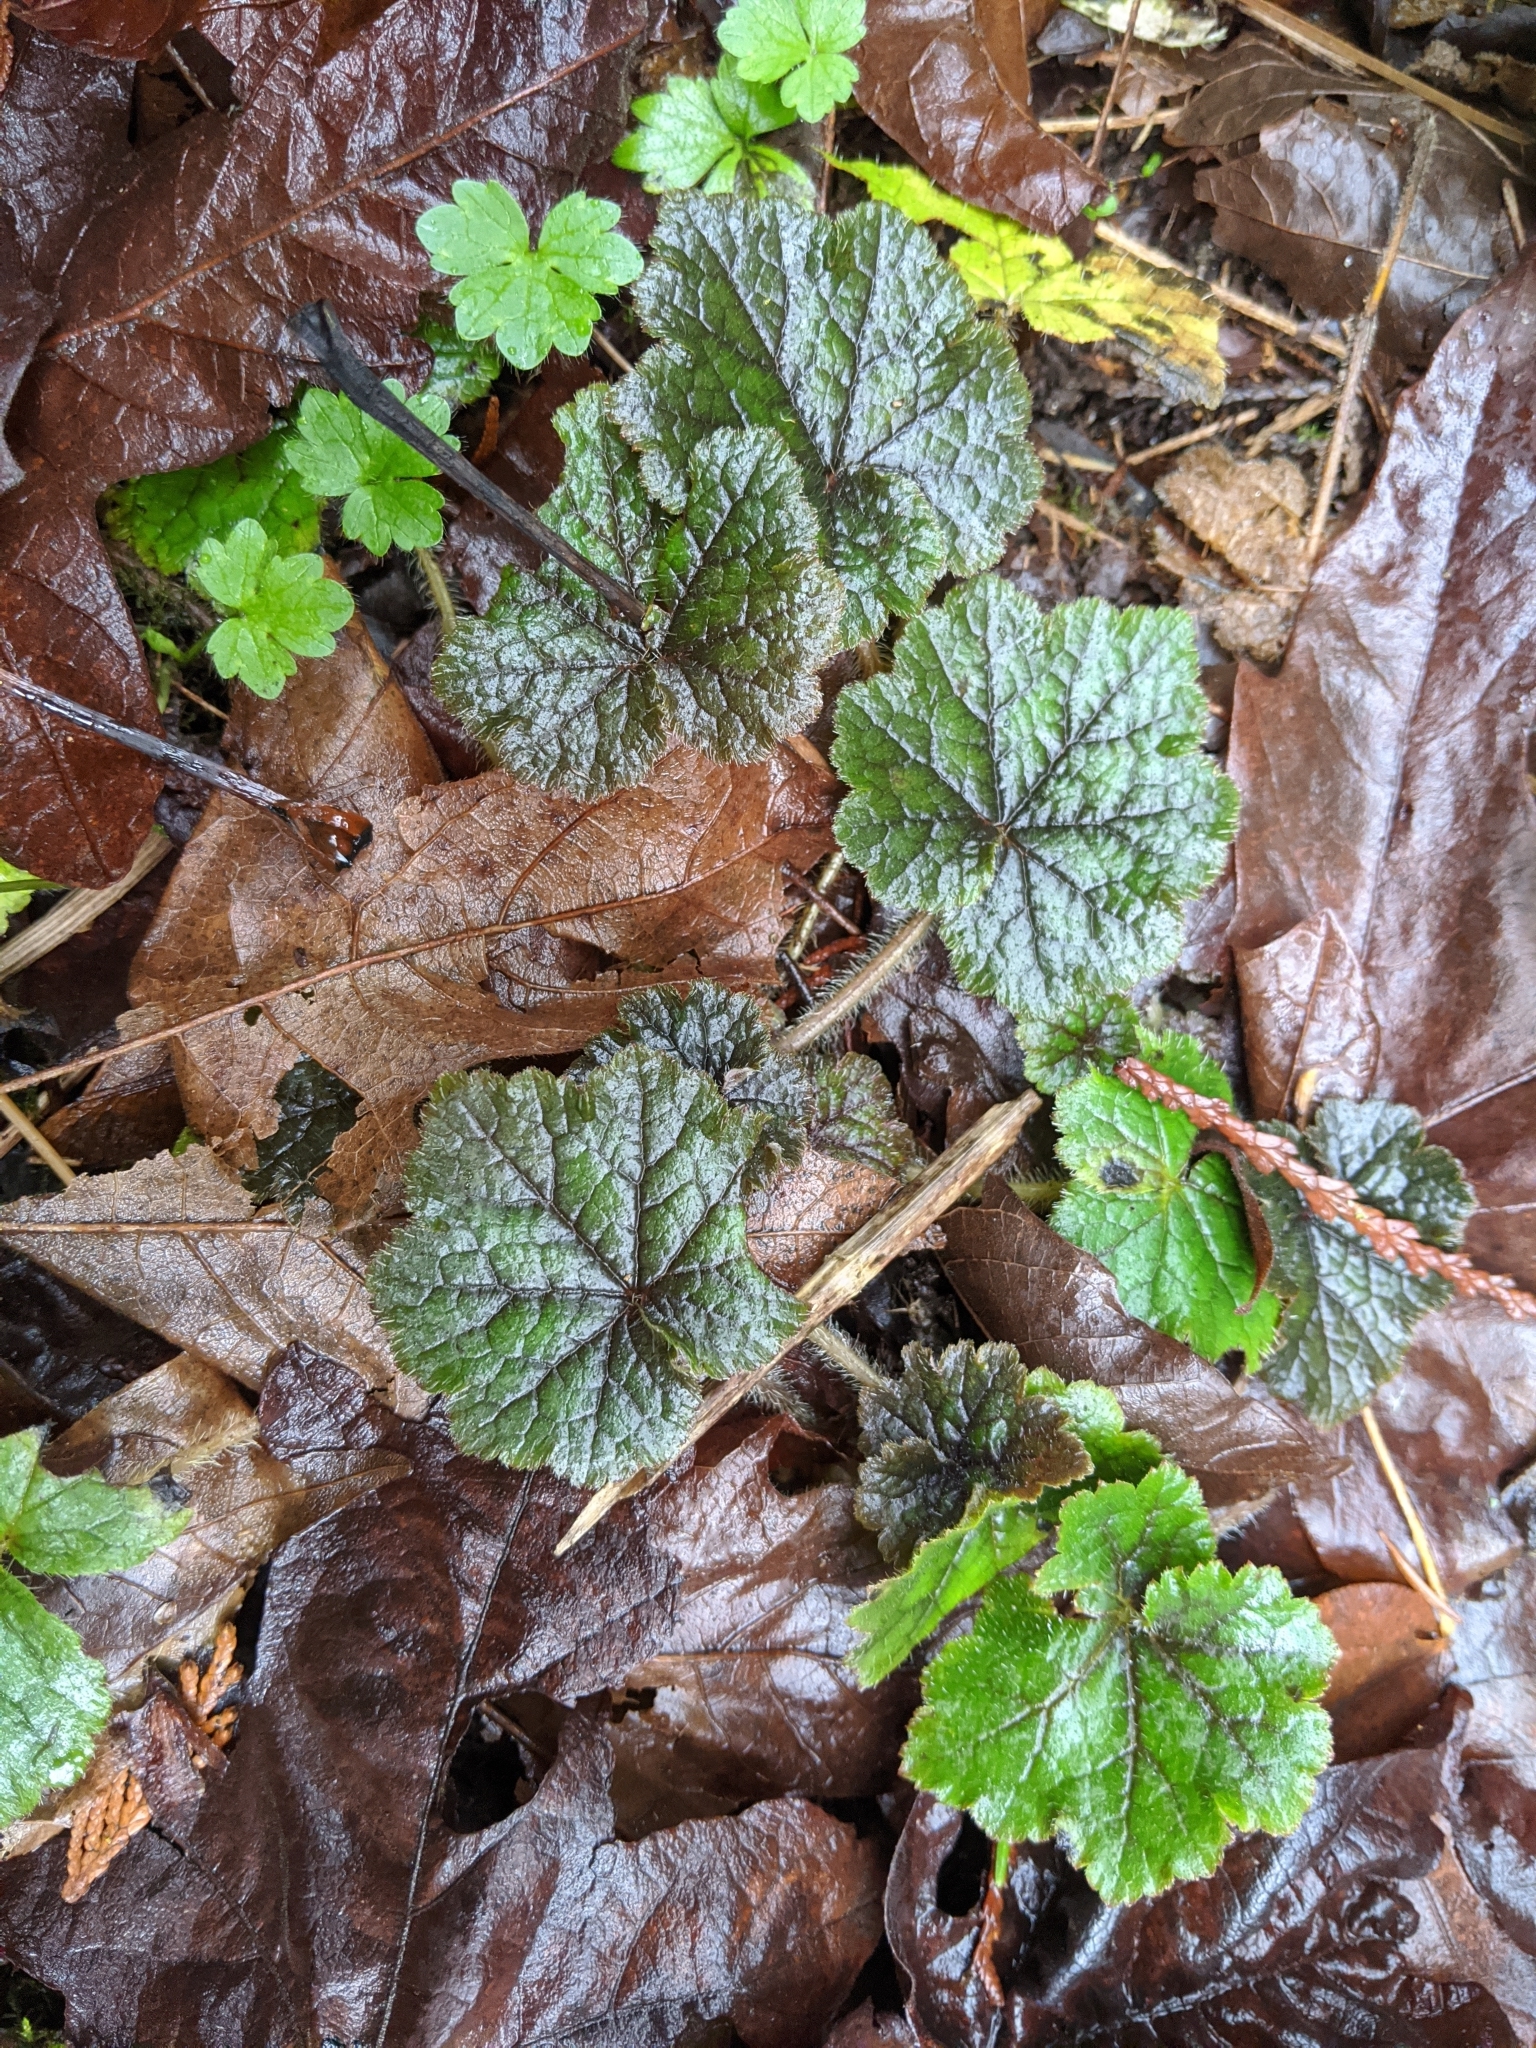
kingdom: Plantae
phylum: Tracheophyta
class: Magnoliopsida
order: Saxifragales
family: Saxifragaceae
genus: Tellima
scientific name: Tellima grandiflora
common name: Fringecups
